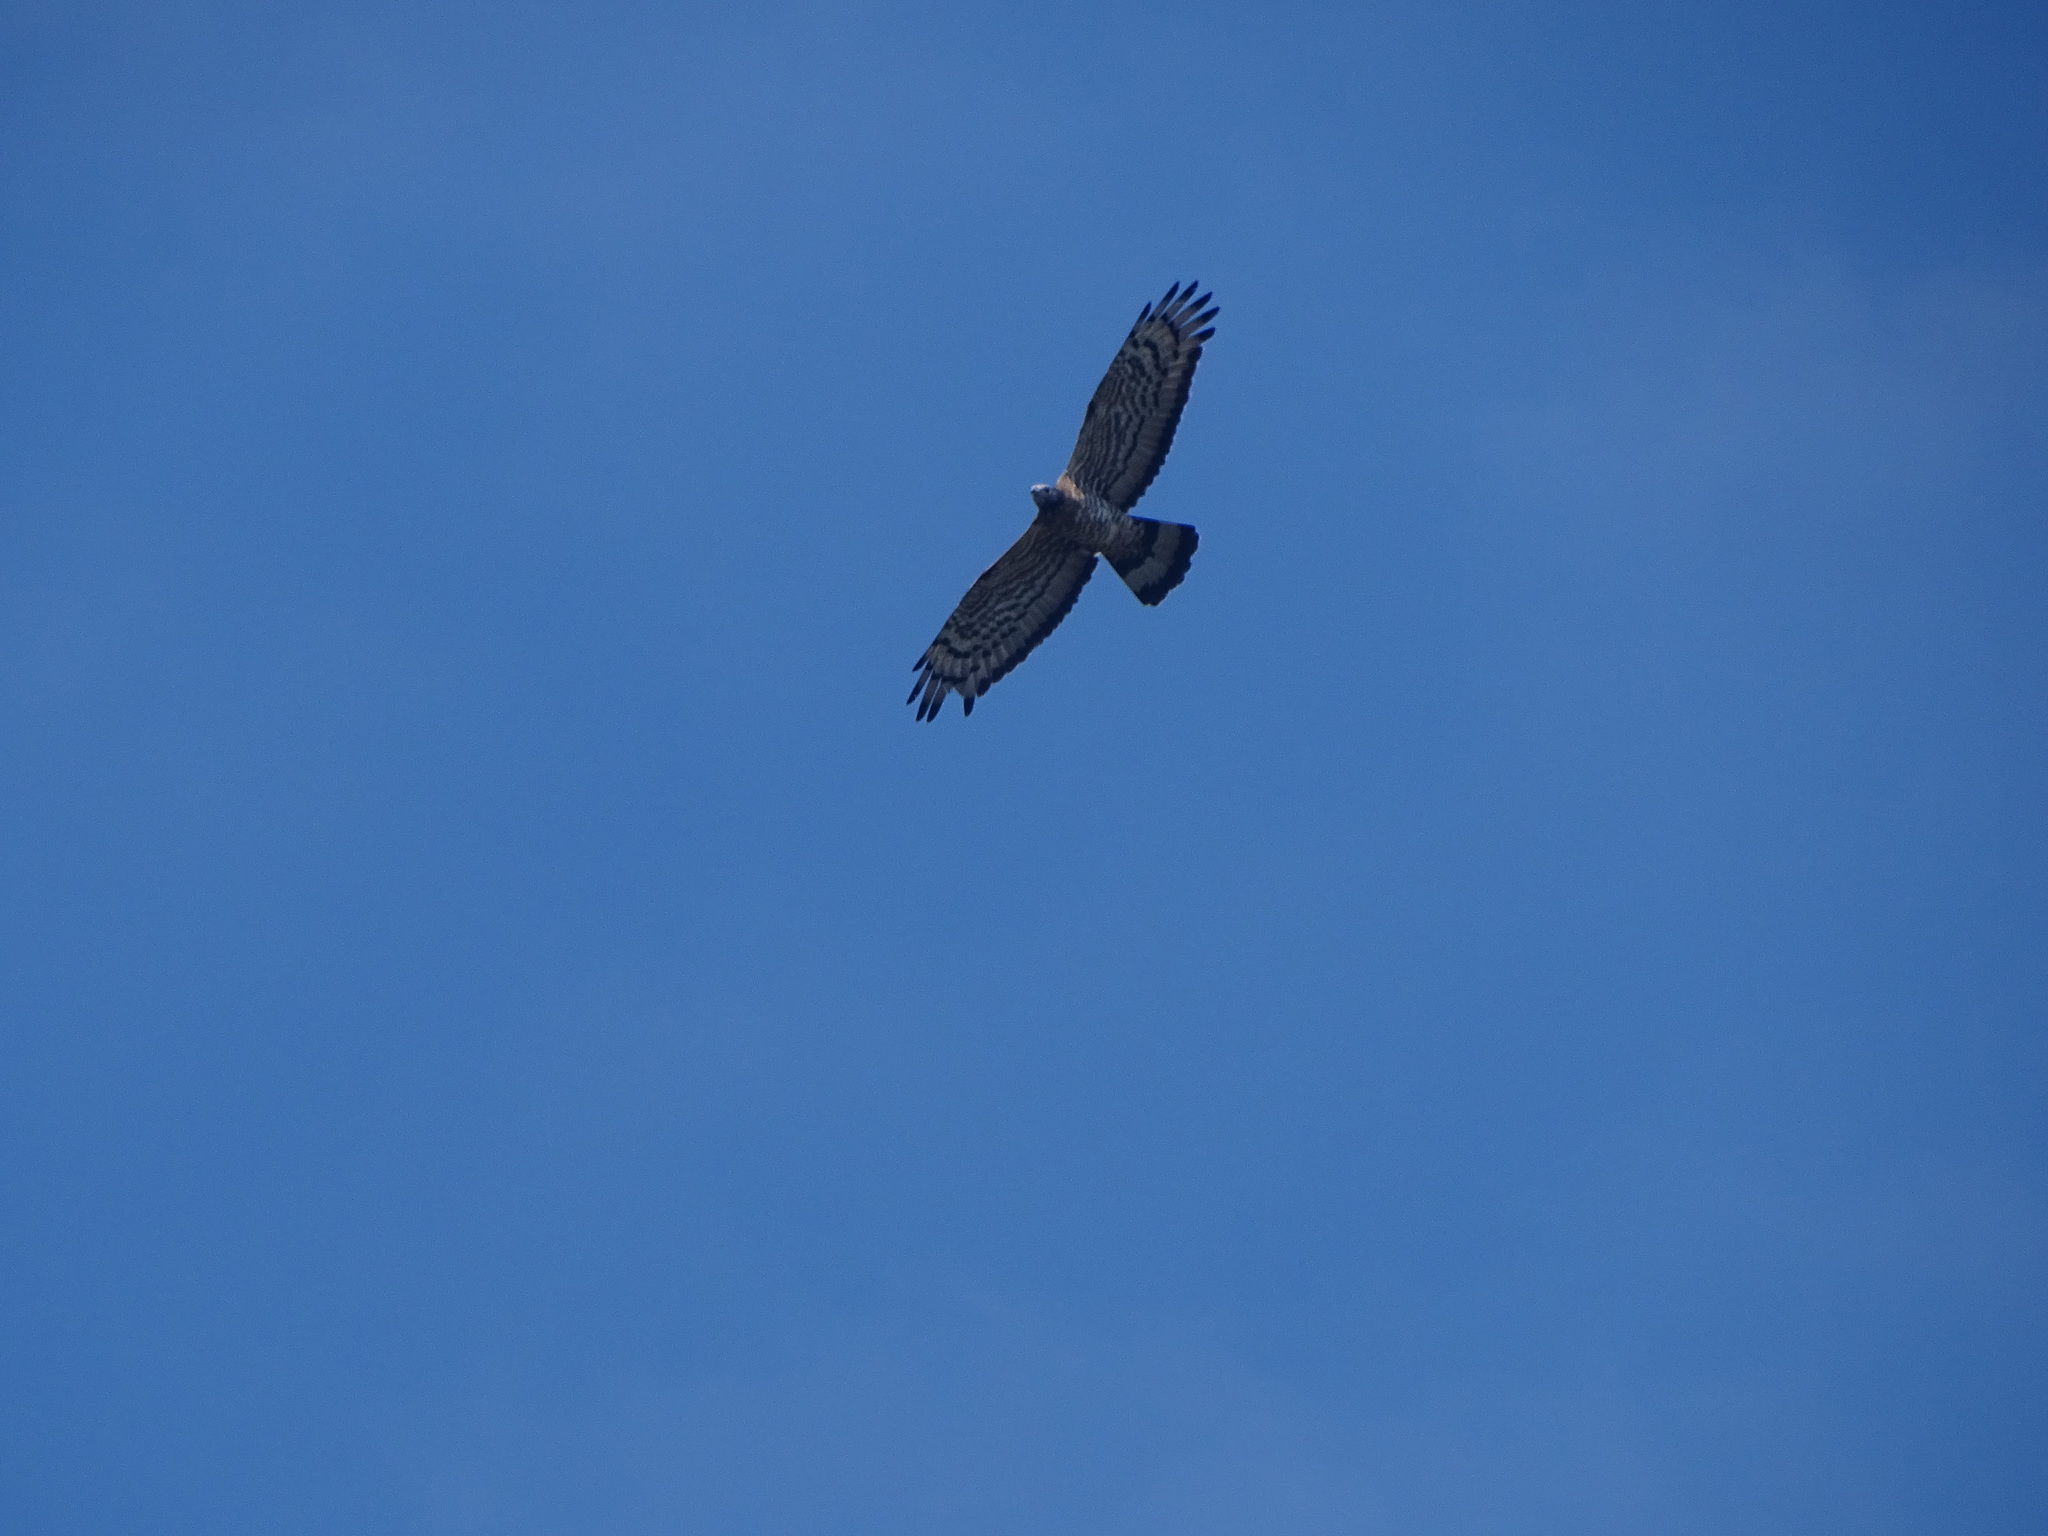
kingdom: Animalia
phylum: Chordata
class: Aves
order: Accipitriformes
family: Accipitridae
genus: Pernis
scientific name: Pernis ptilorhynchus
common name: Crested honey buzzard
